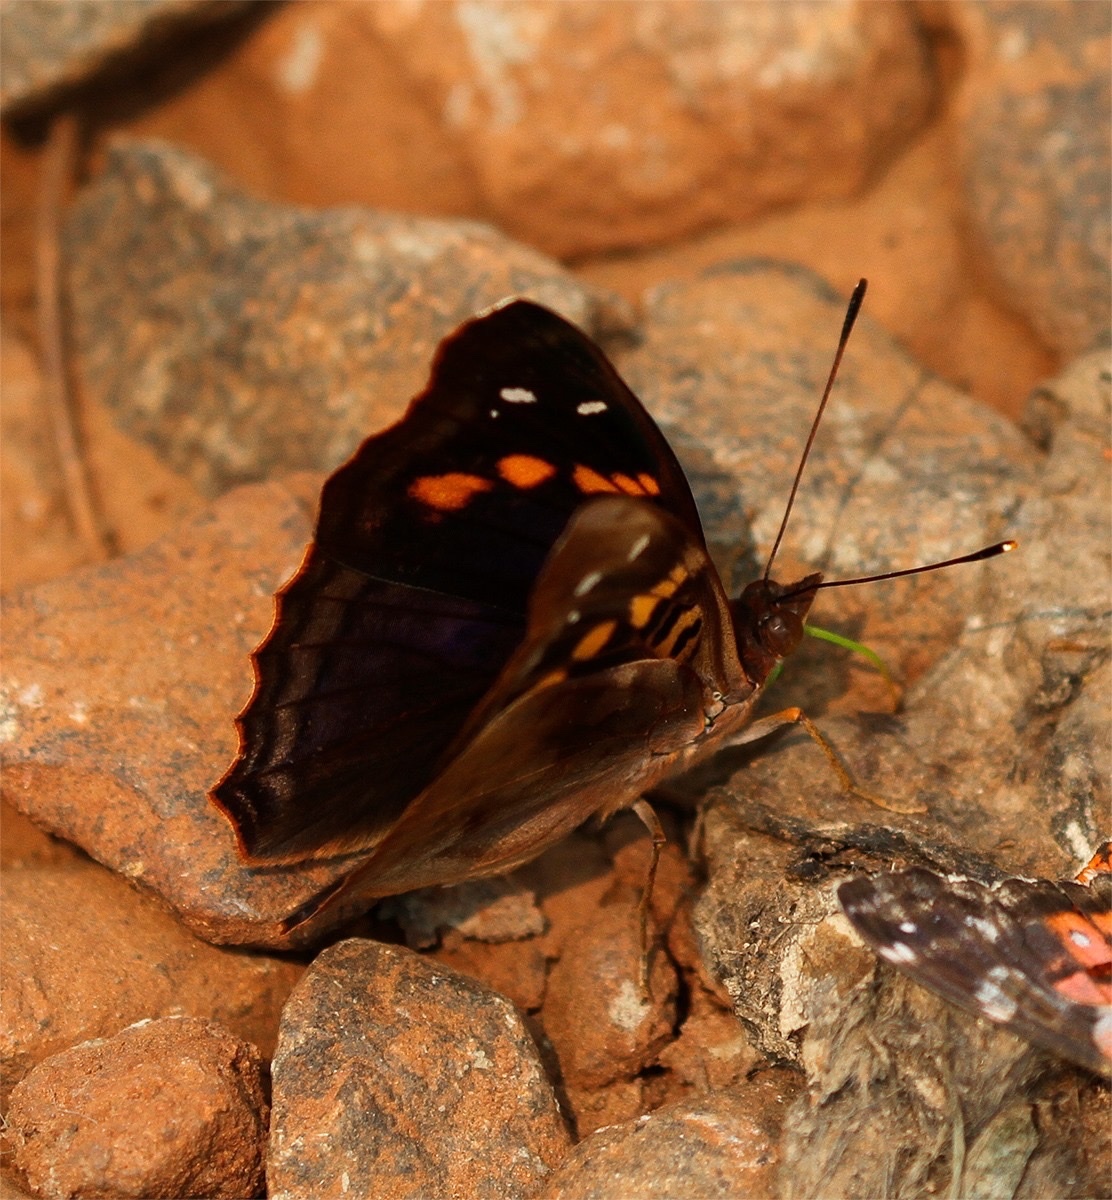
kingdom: Animalia
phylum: Arthropoda
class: Insecta
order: Lepidoptera
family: Nymphalidae
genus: Doxocopa
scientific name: Doxocopa agathina
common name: Agathina emperor
